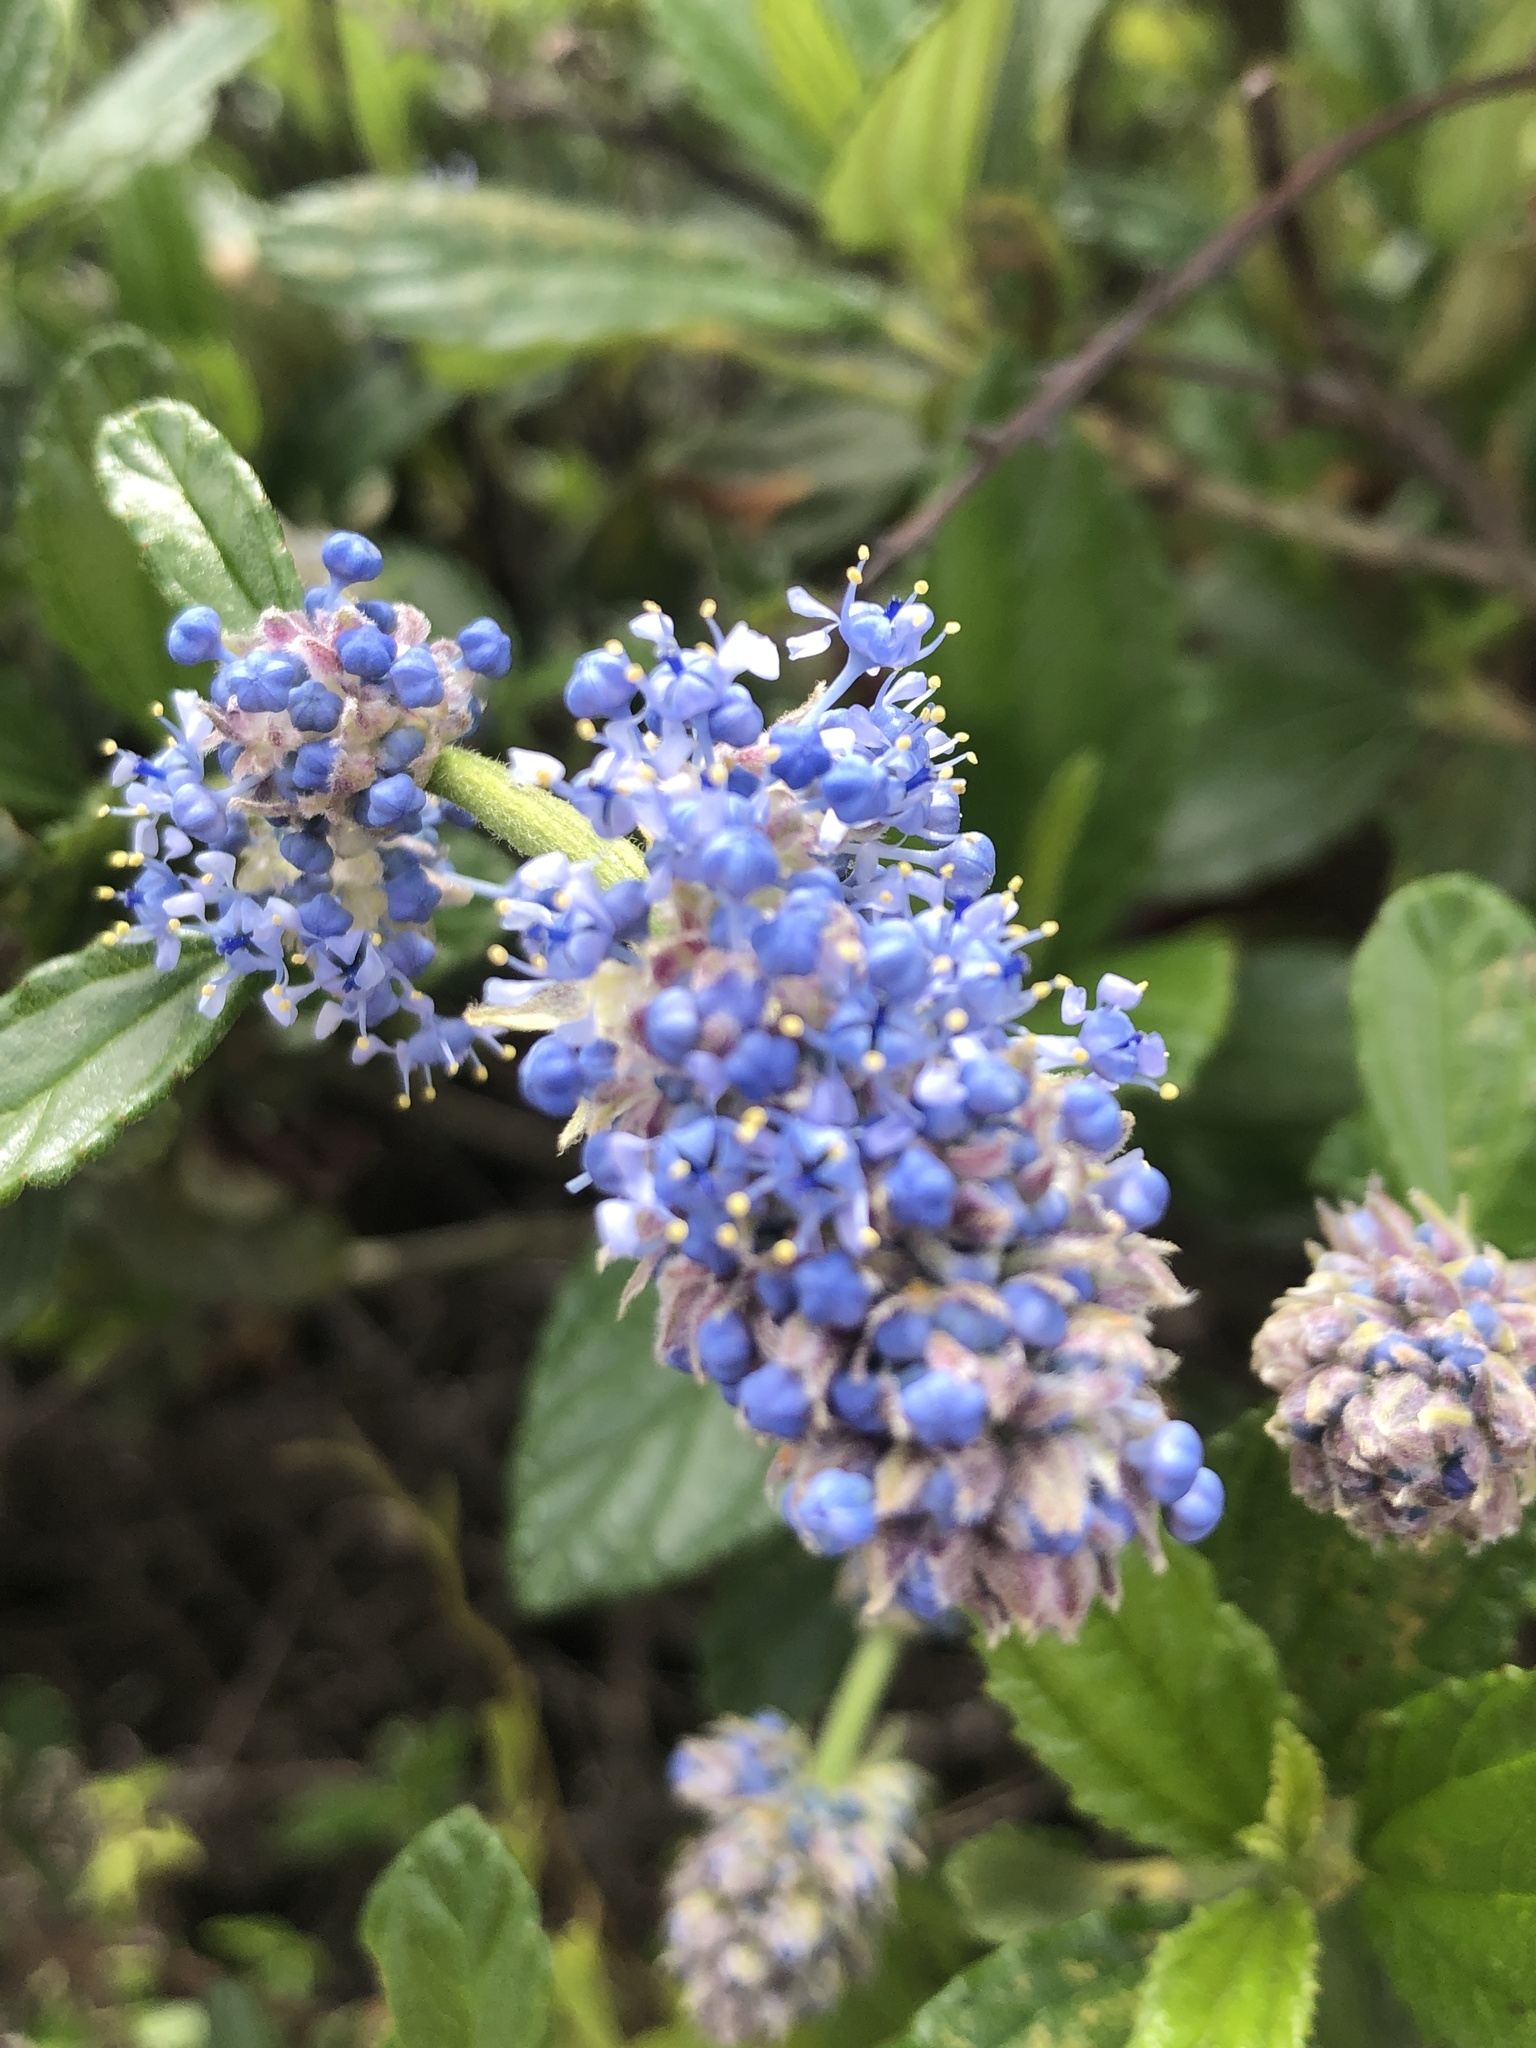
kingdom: Plantae
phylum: Tracheophyta
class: Magnoliopsida
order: Rosales
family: Rhamnaceae
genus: Ceanothus
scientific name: Ceanothus thyrsiflorus
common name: California-lilac
